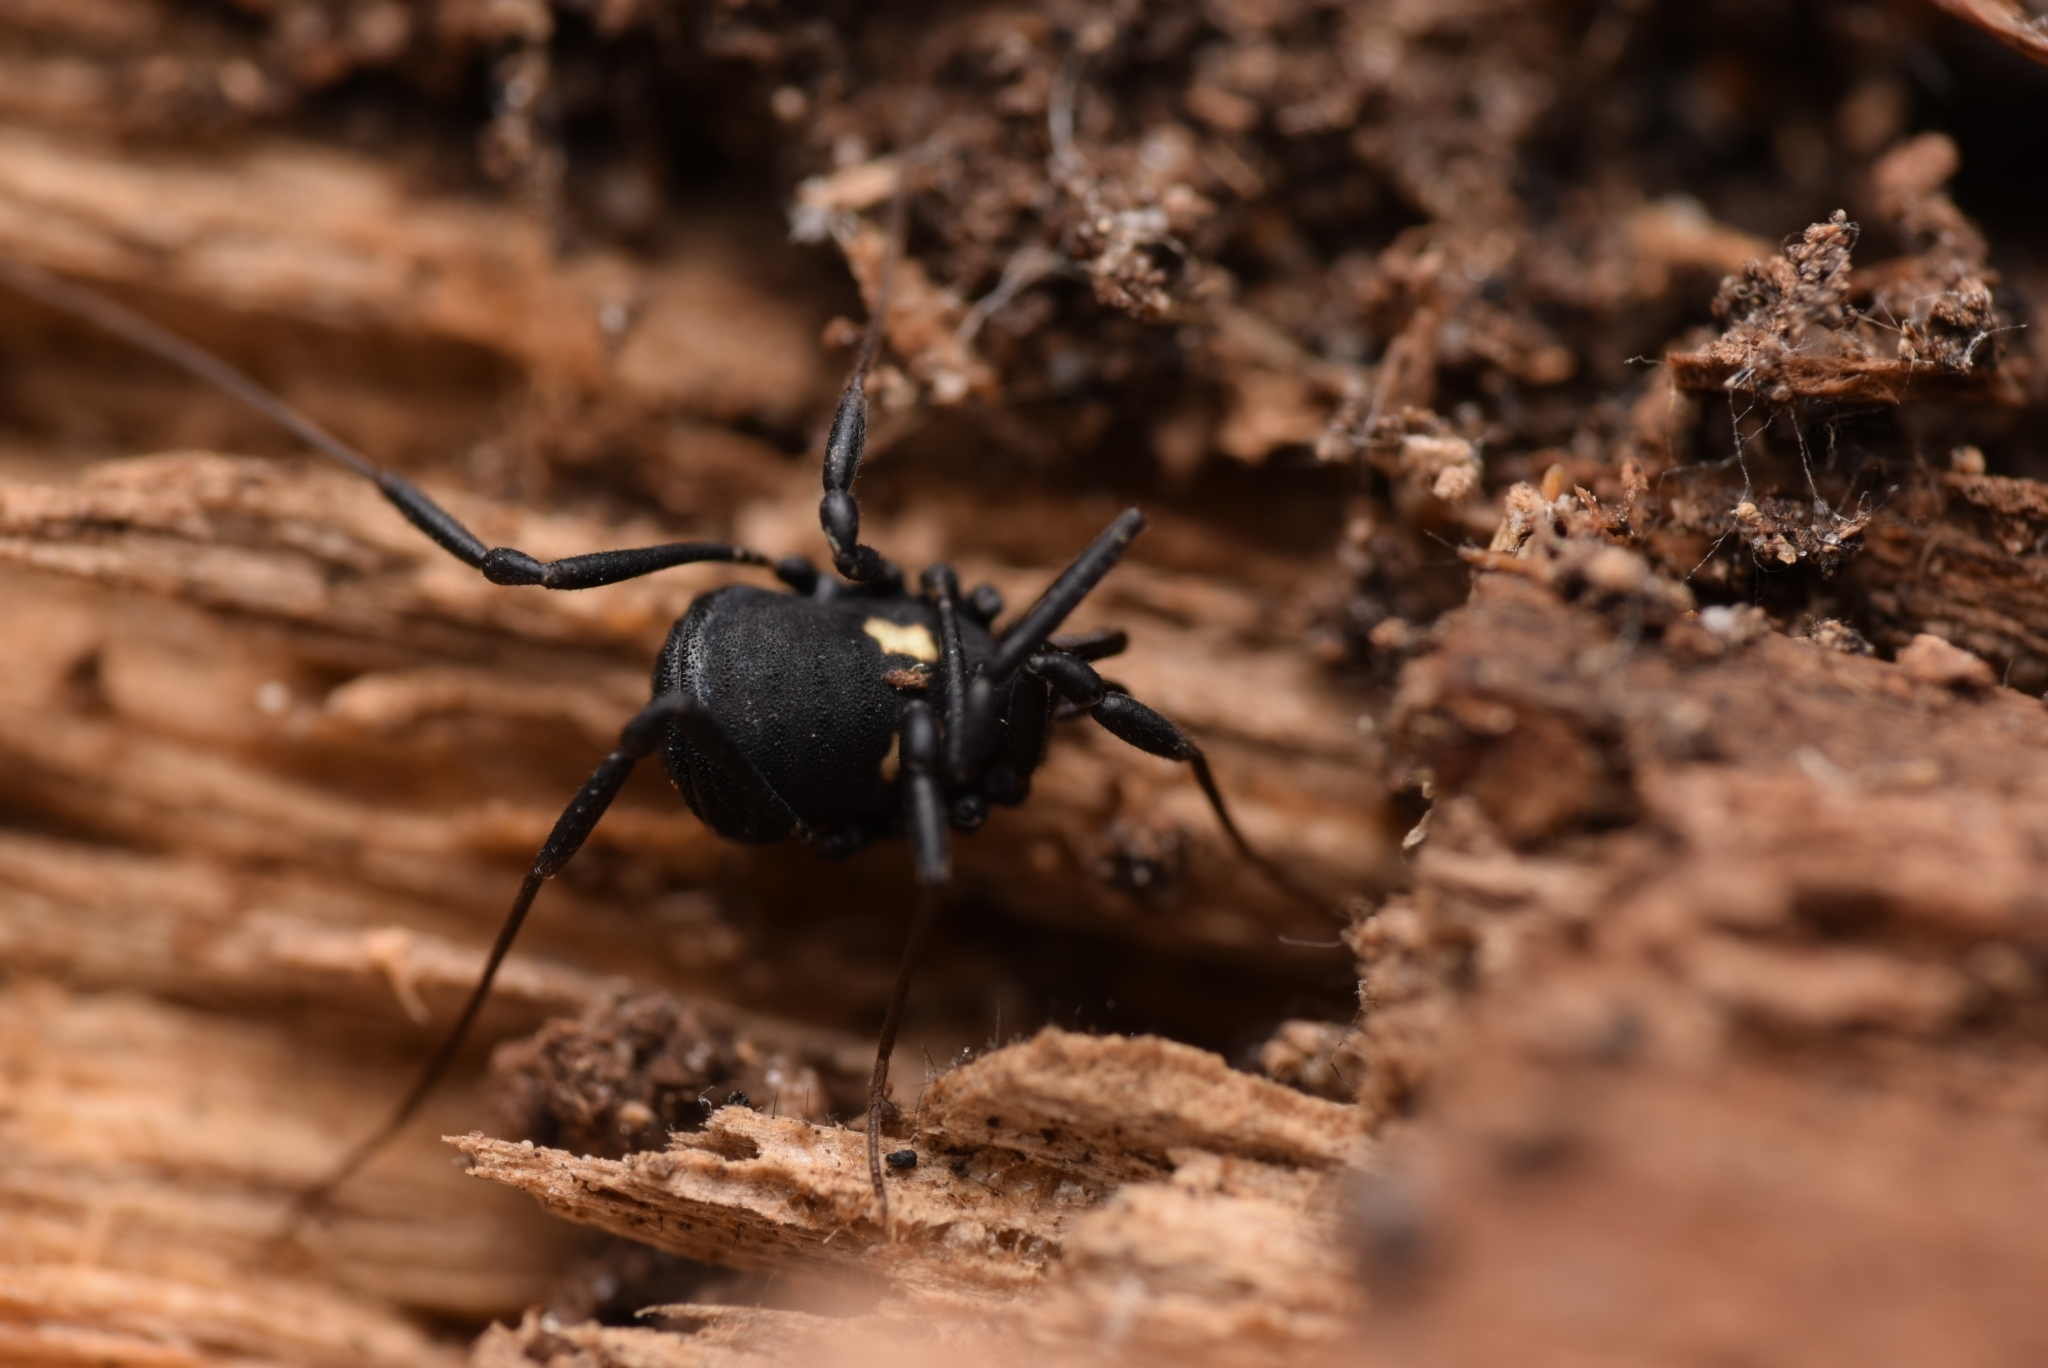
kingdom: Animalia
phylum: Arthropoda
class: Arachnida
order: Opiliones
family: Nemastomatidae
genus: Nemastoma
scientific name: Nemastoma bimaculatum
